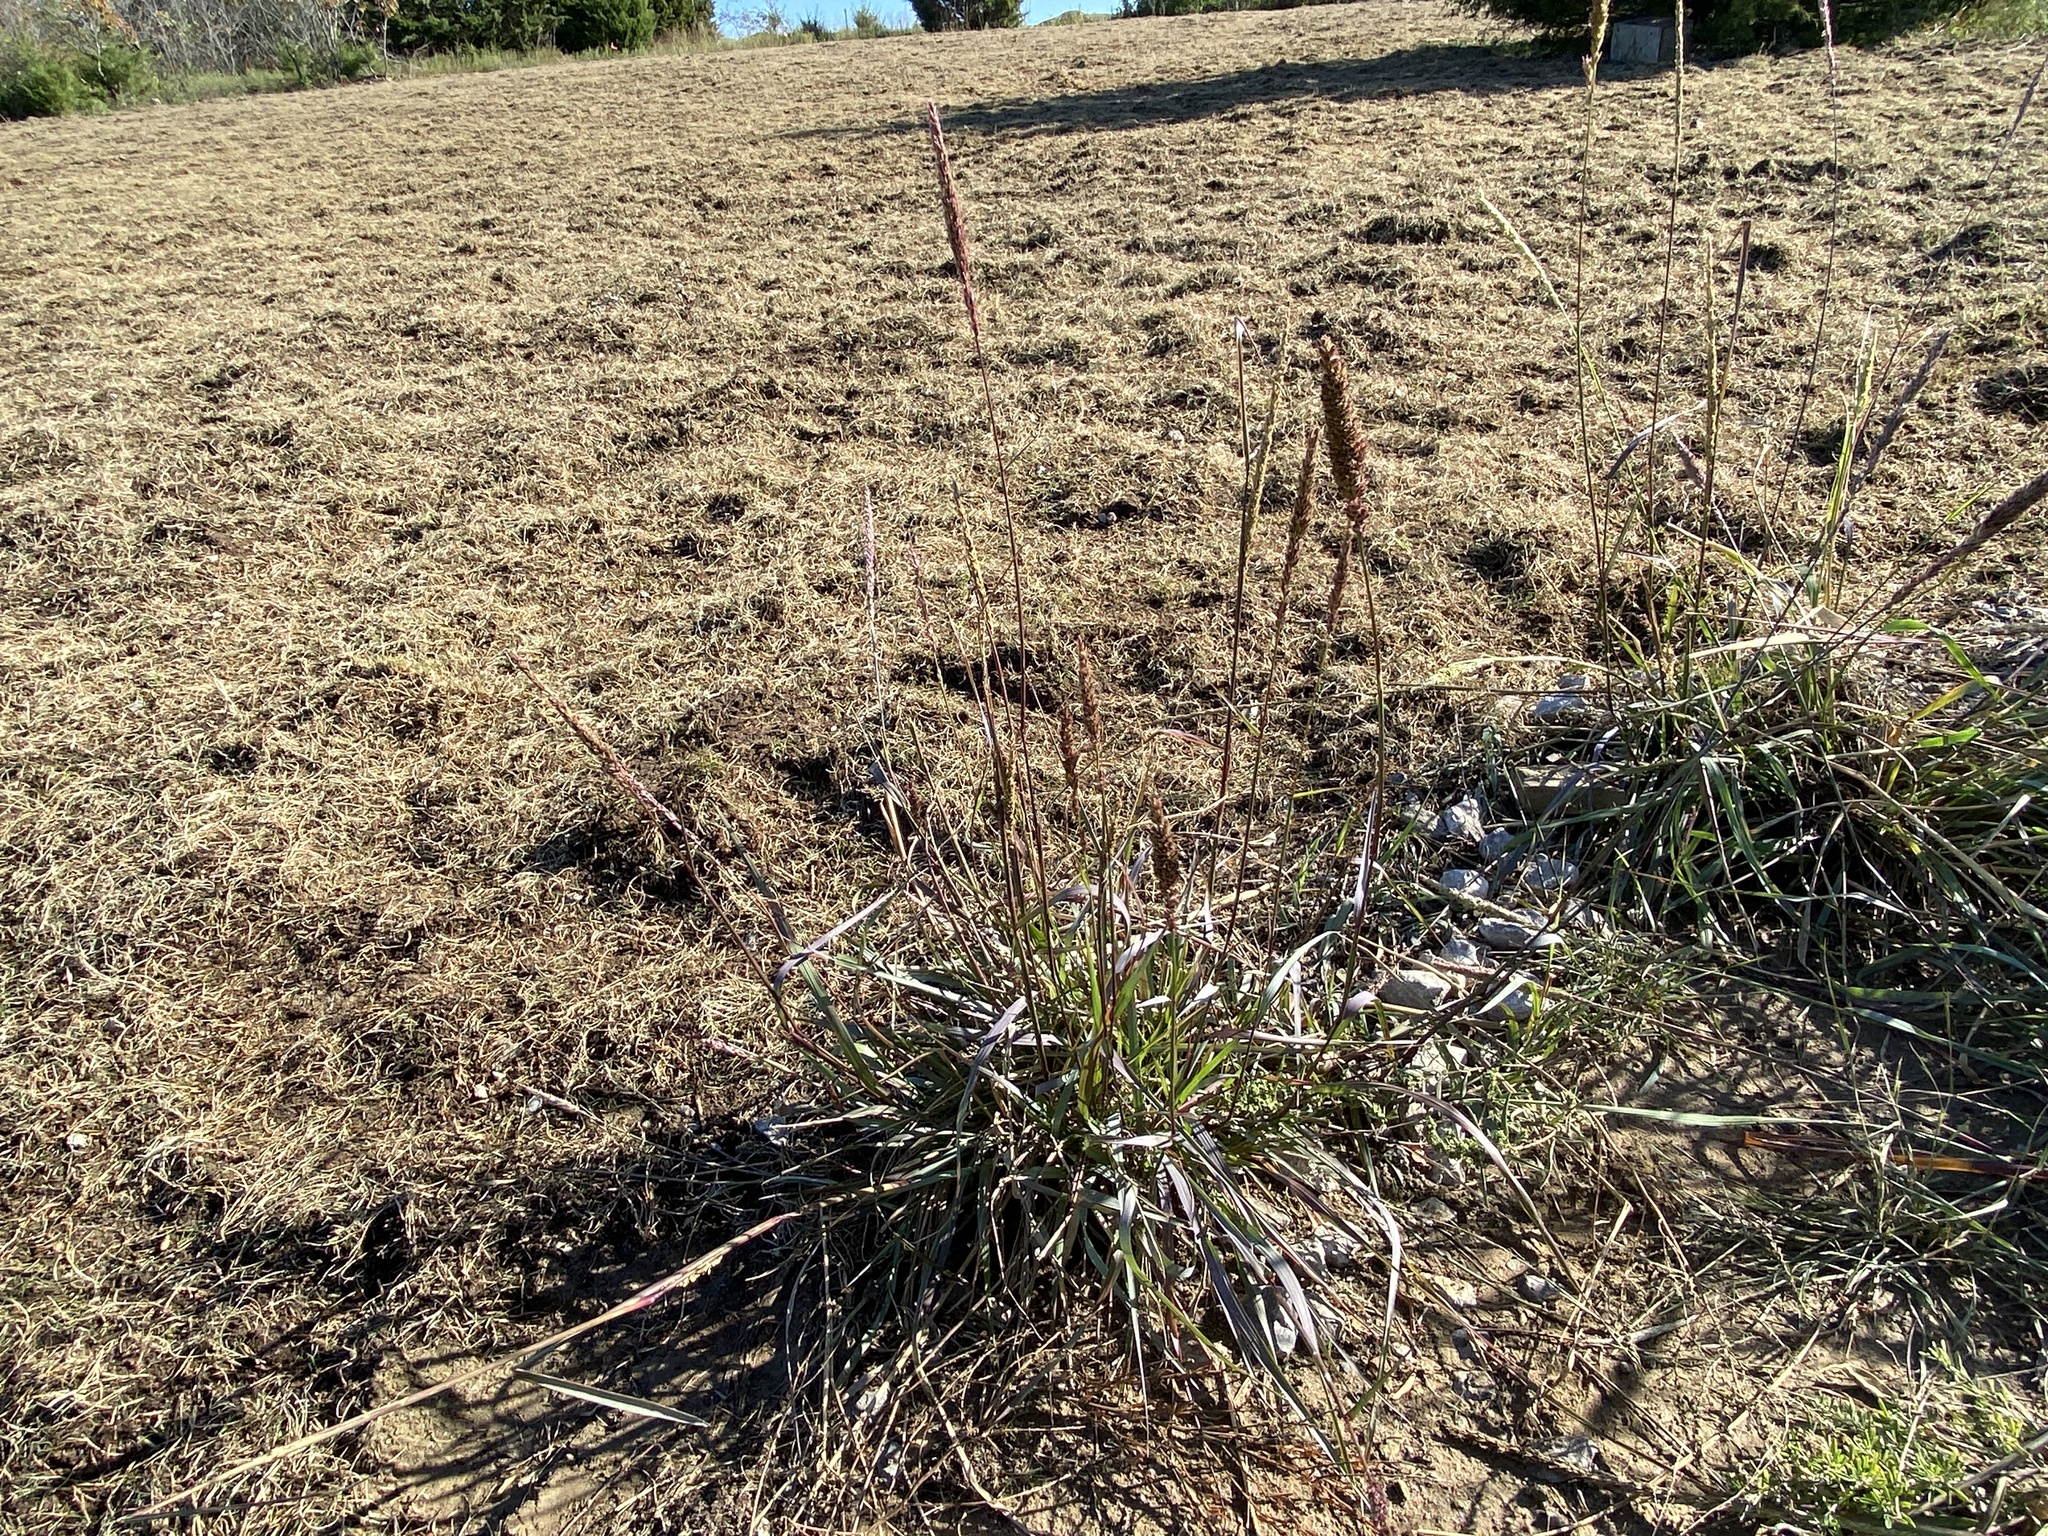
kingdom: Plantae
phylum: Tracheophyta
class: Liliopsida
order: Poales
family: Poaceae
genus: Tridens
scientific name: Tridens strictus
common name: Long-spike tridens
